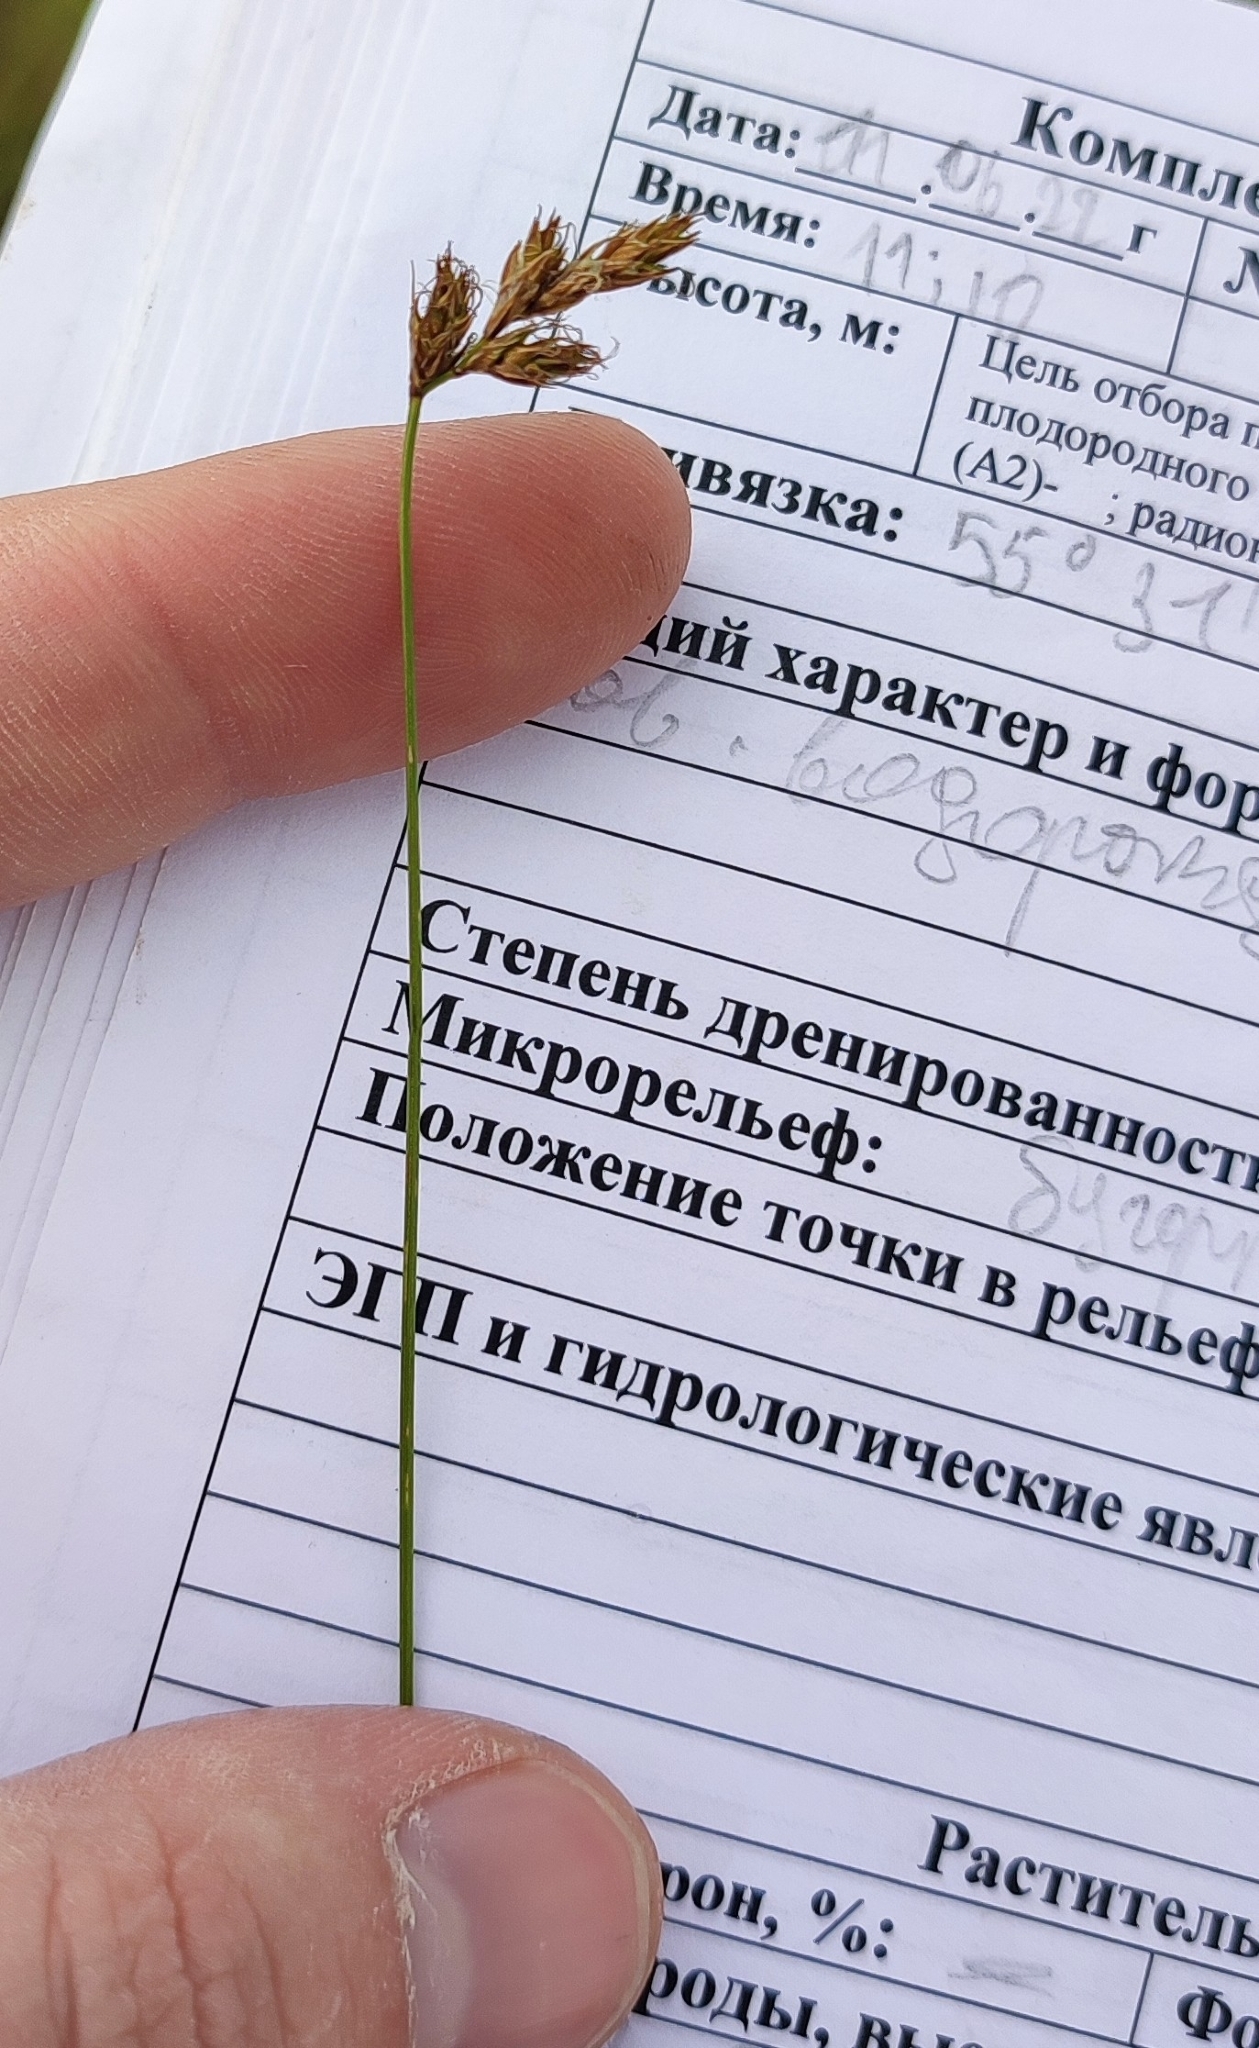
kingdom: Plantae
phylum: Tracheophyta
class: Liliopsida
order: Poales
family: Cyperaceae
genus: Carex
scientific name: Carex praecox
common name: Early sedge
